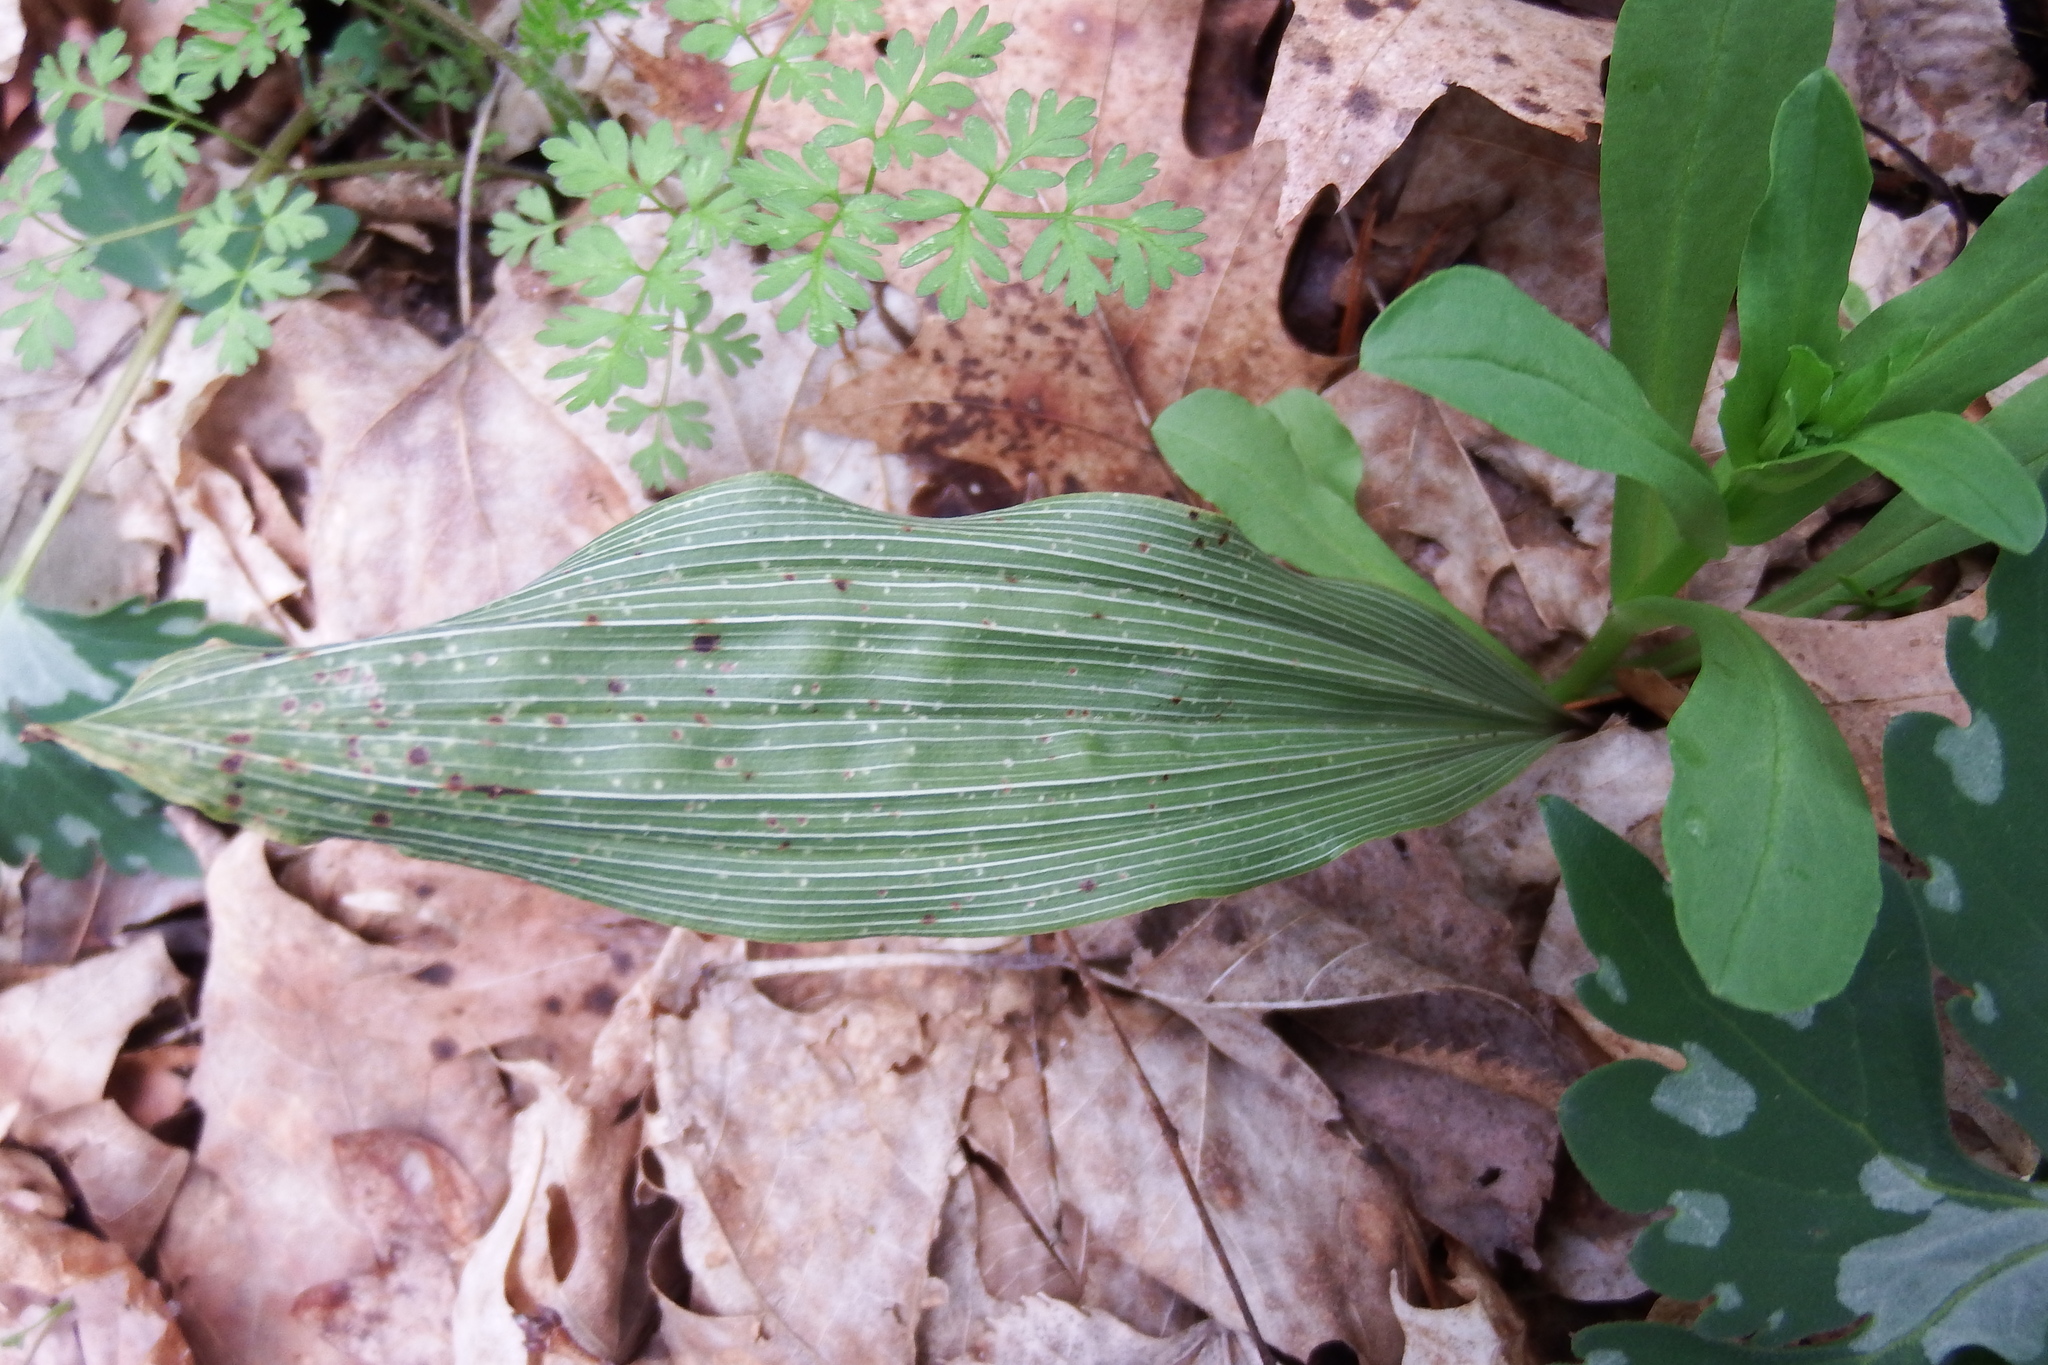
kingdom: Plantae
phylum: Tracheophyta
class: Liliopsida
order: Asparagales
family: Orchidaceae
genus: Aplectrum
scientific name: Aplectrum hyemale
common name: Adam-and-eve
